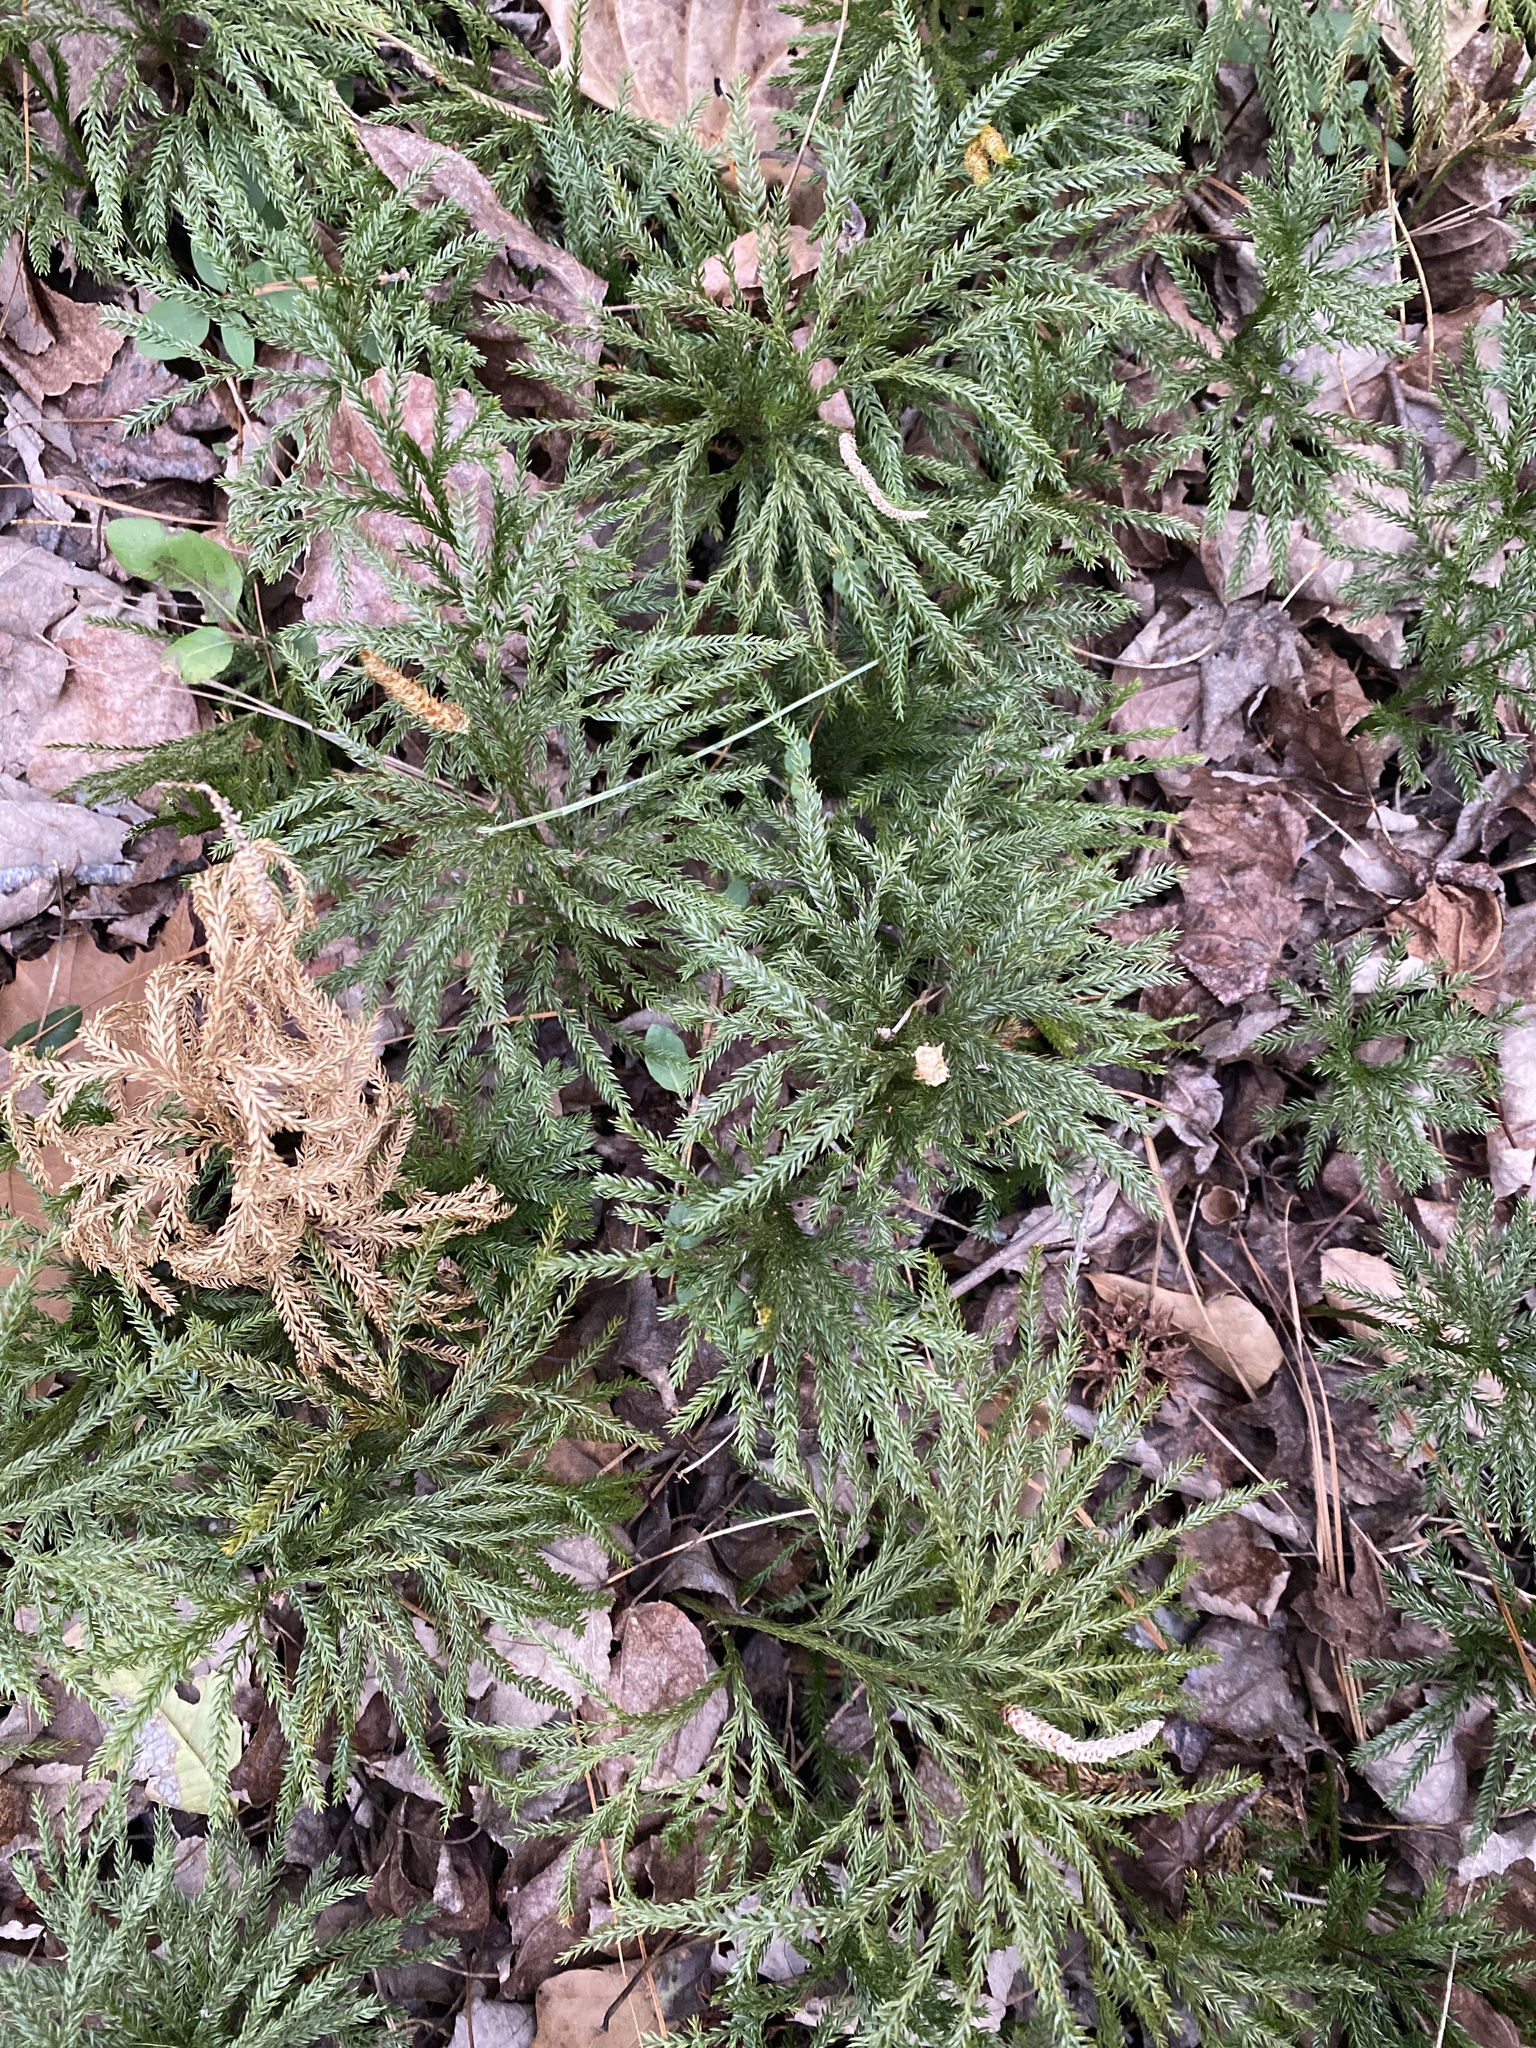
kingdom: Plantae
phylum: Tracheophyta
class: Lycopodiopsida
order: Lycopodiales
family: Lycopodiaceae
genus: Dendrolycopodium
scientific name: Dendrolycopodium obscurum
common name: Common ground-pine
